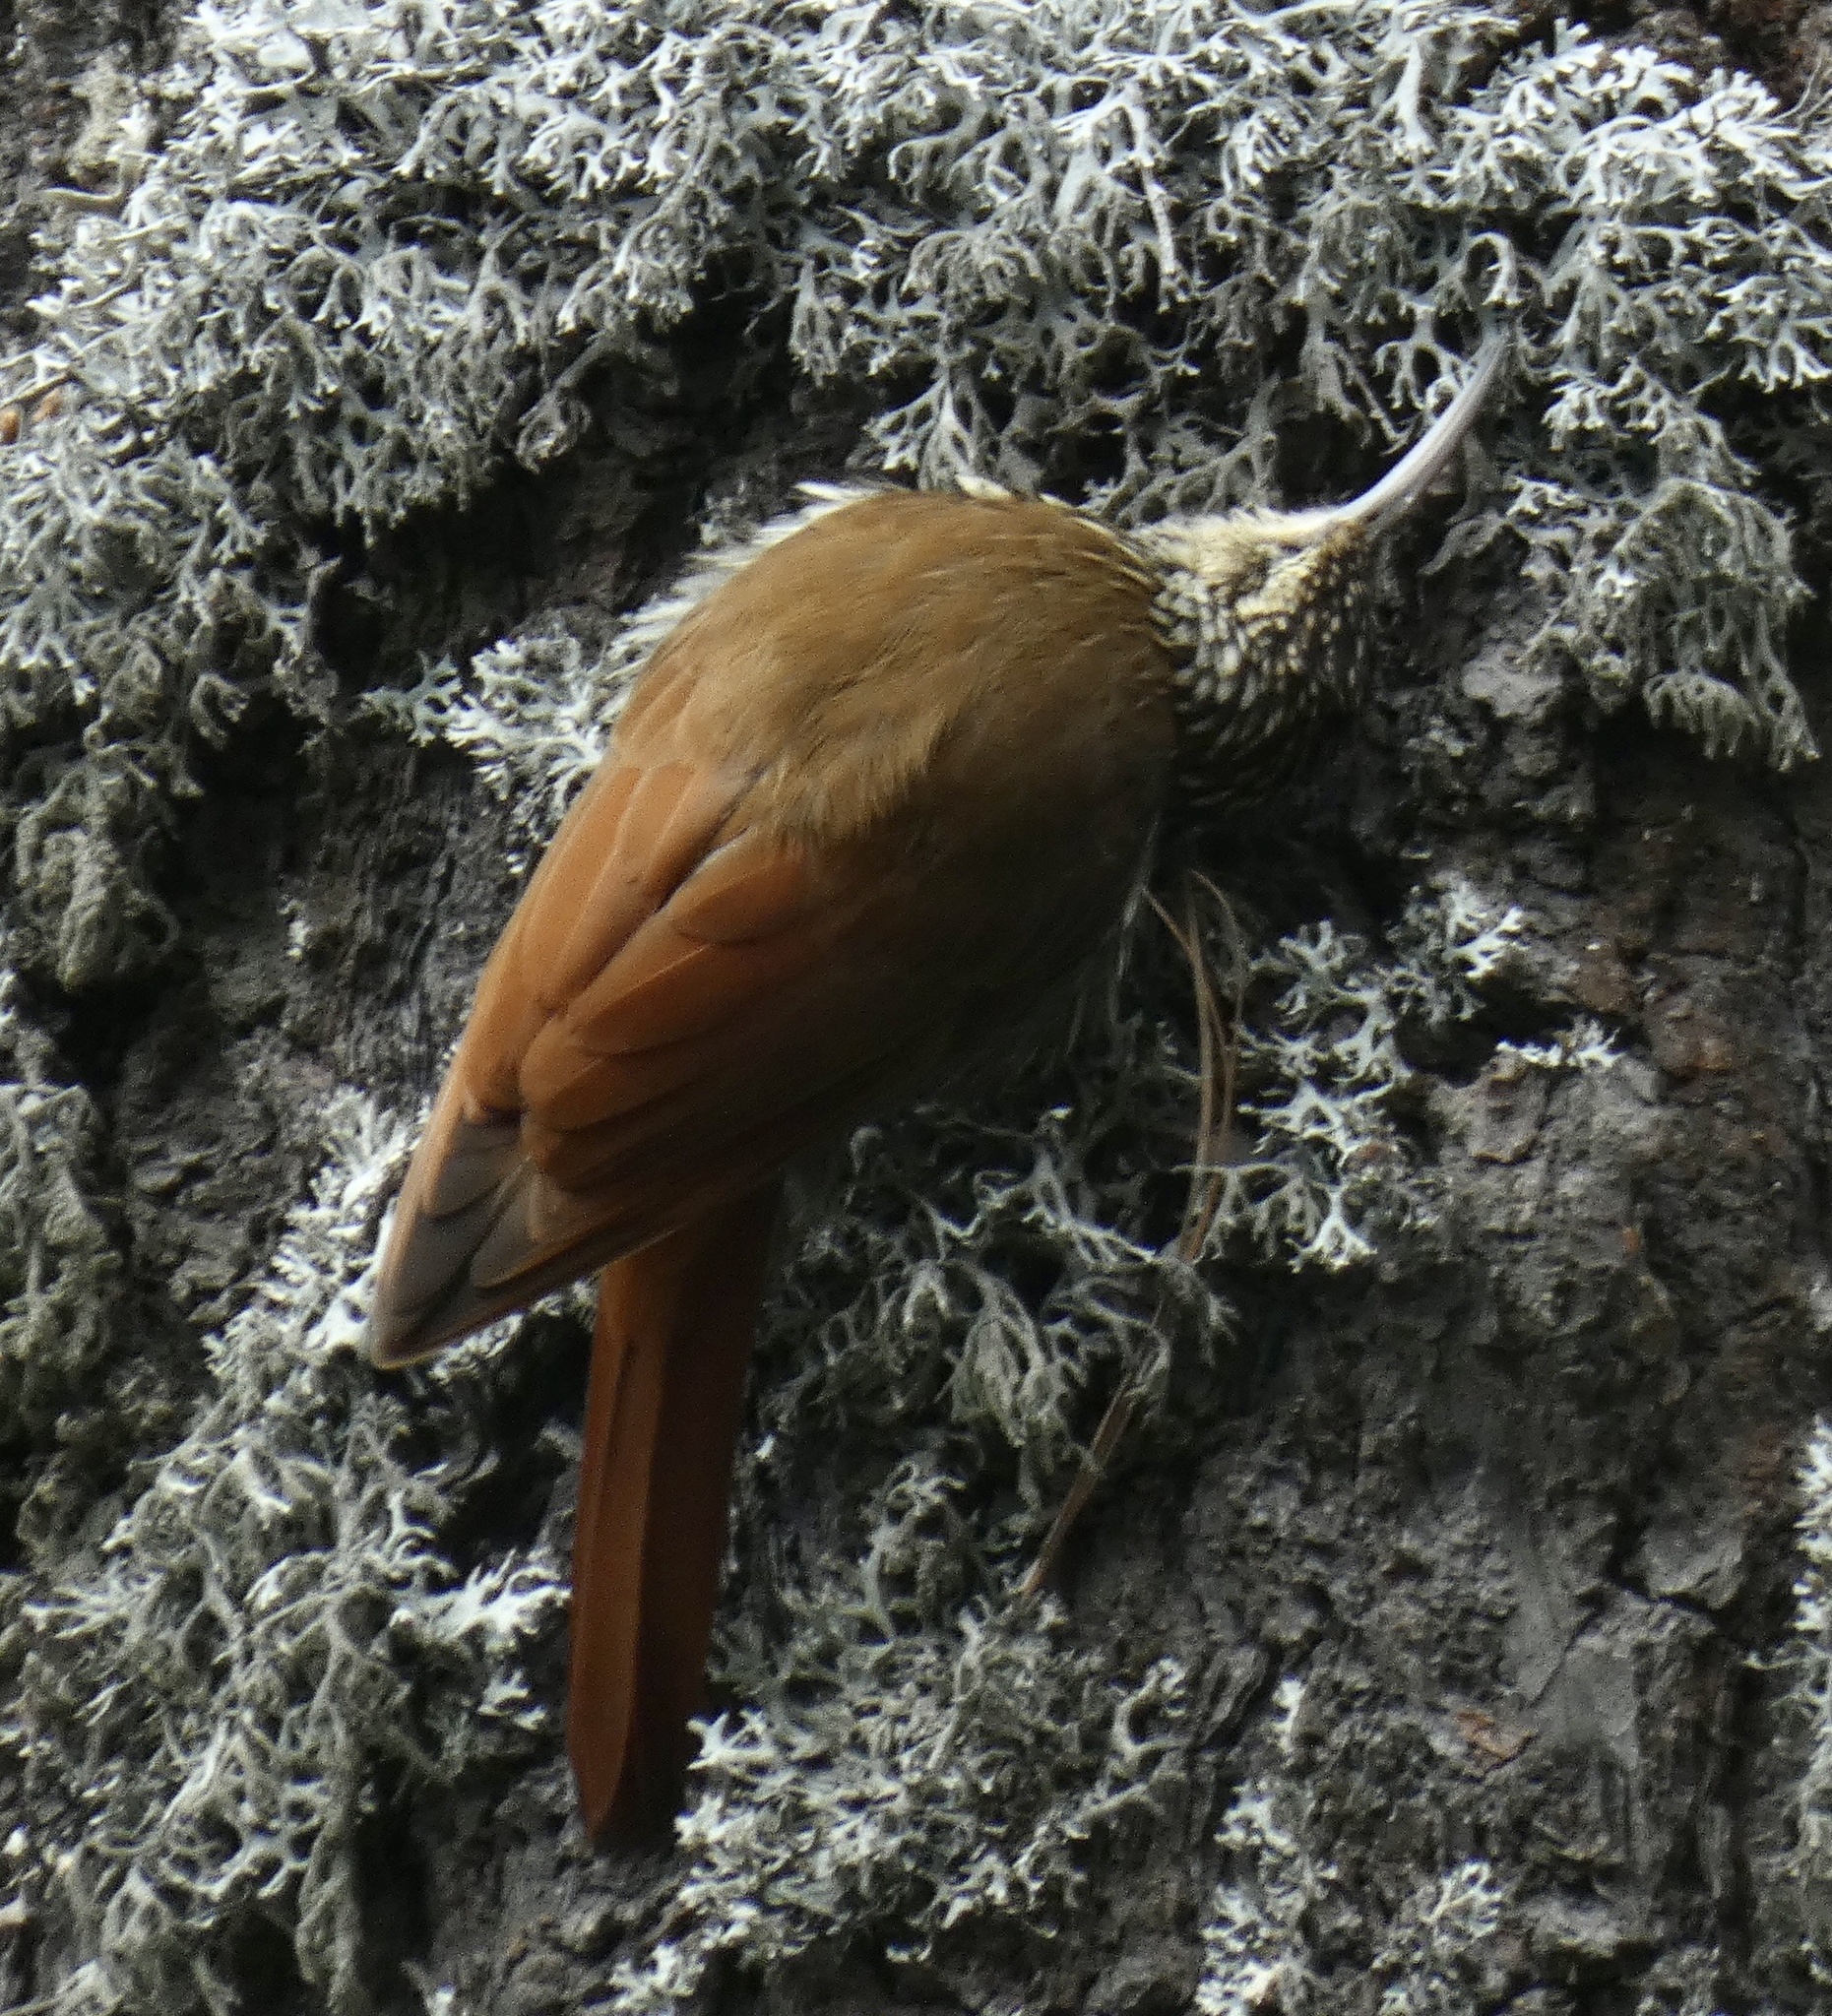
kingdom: Animalia
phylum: Chordata
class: Aves
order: Passeriformes
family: Furnariidae
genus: Lepidocolaptes
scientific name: Lepidocolaptes affinis
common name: Spot-crowned woodcreeper
